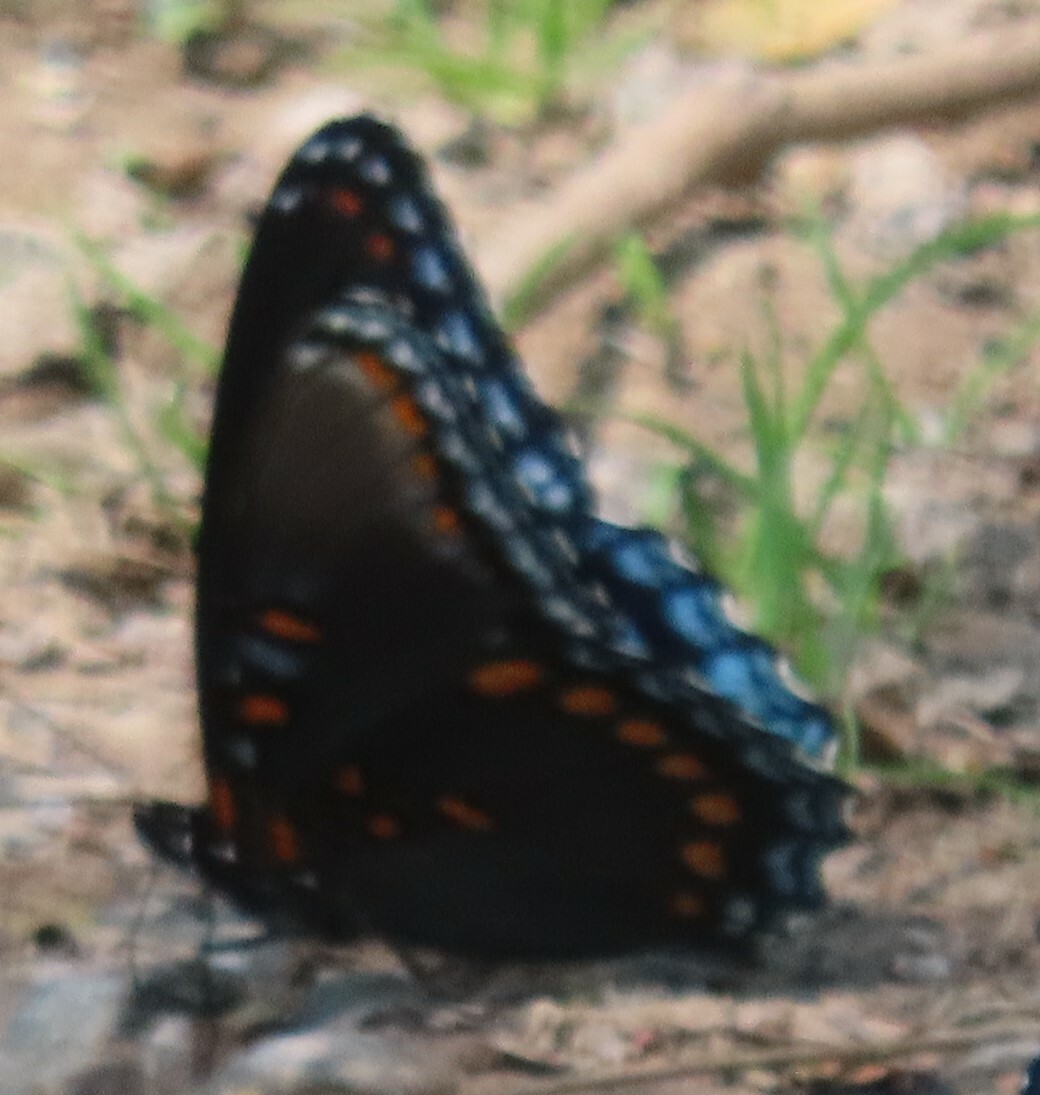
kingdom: Animalia
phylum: Arthropoda
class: Insecta
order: Lepidoptera
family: Nymphalidae
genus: Limenitis
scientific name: Limenitis astyanax
